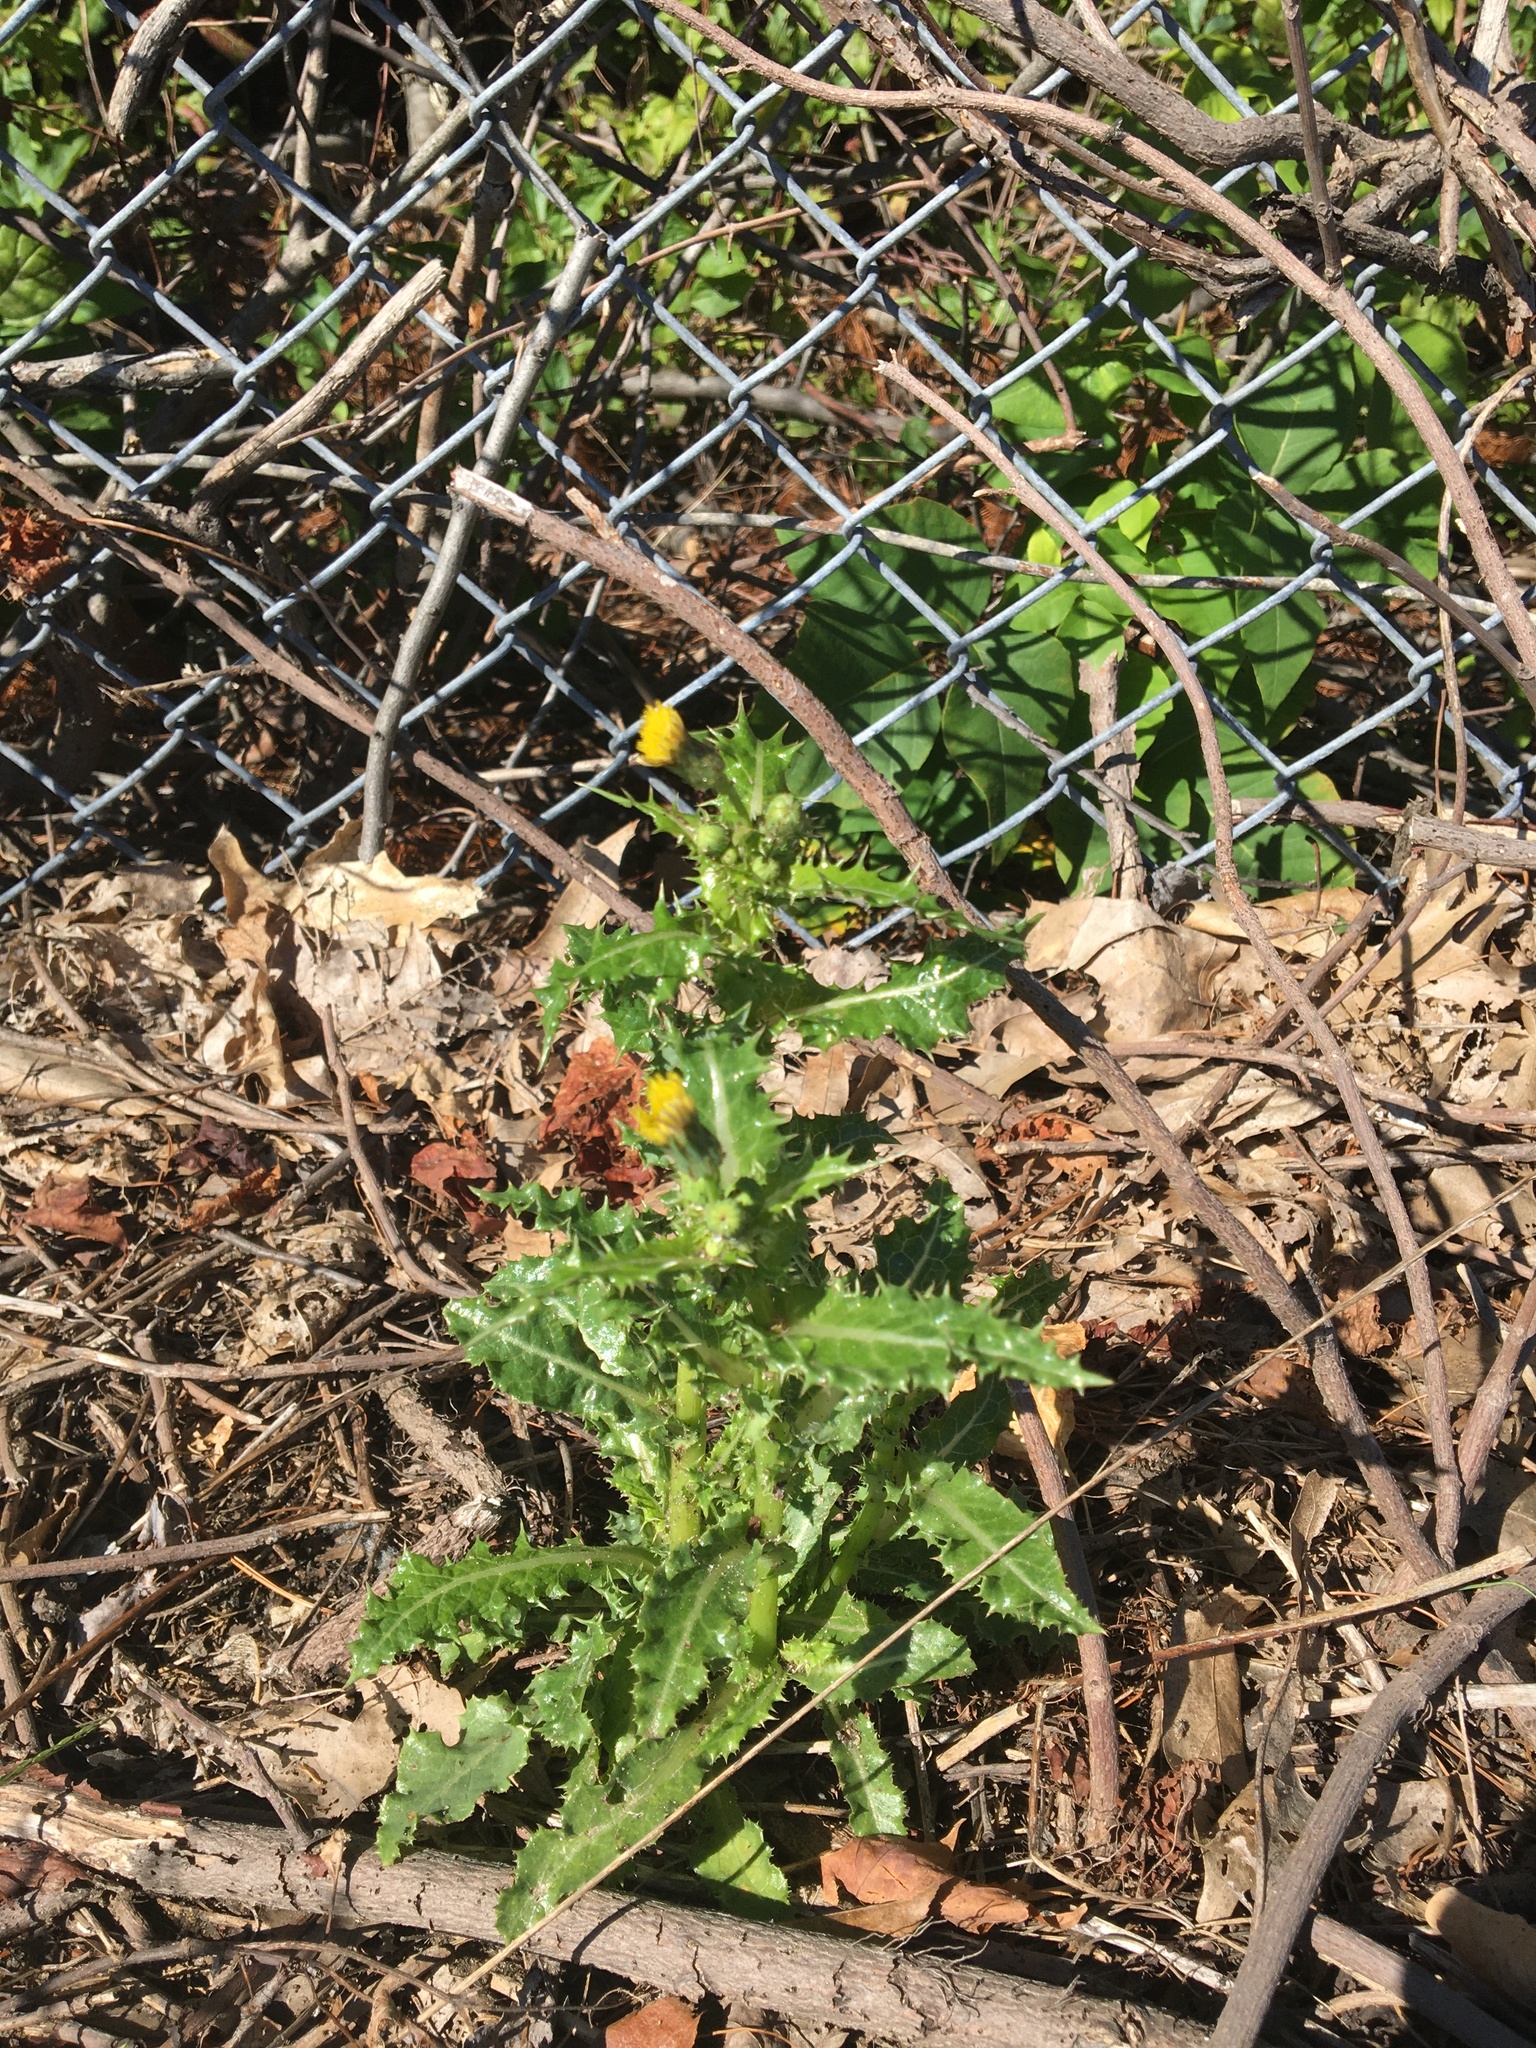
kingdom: Plantae
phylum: Tracheophyta
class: Magnoliopsida
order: Asterales
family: Asteraceae
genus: Sonchus
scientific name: Sonchus asper
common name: Prickly sow-thistle
